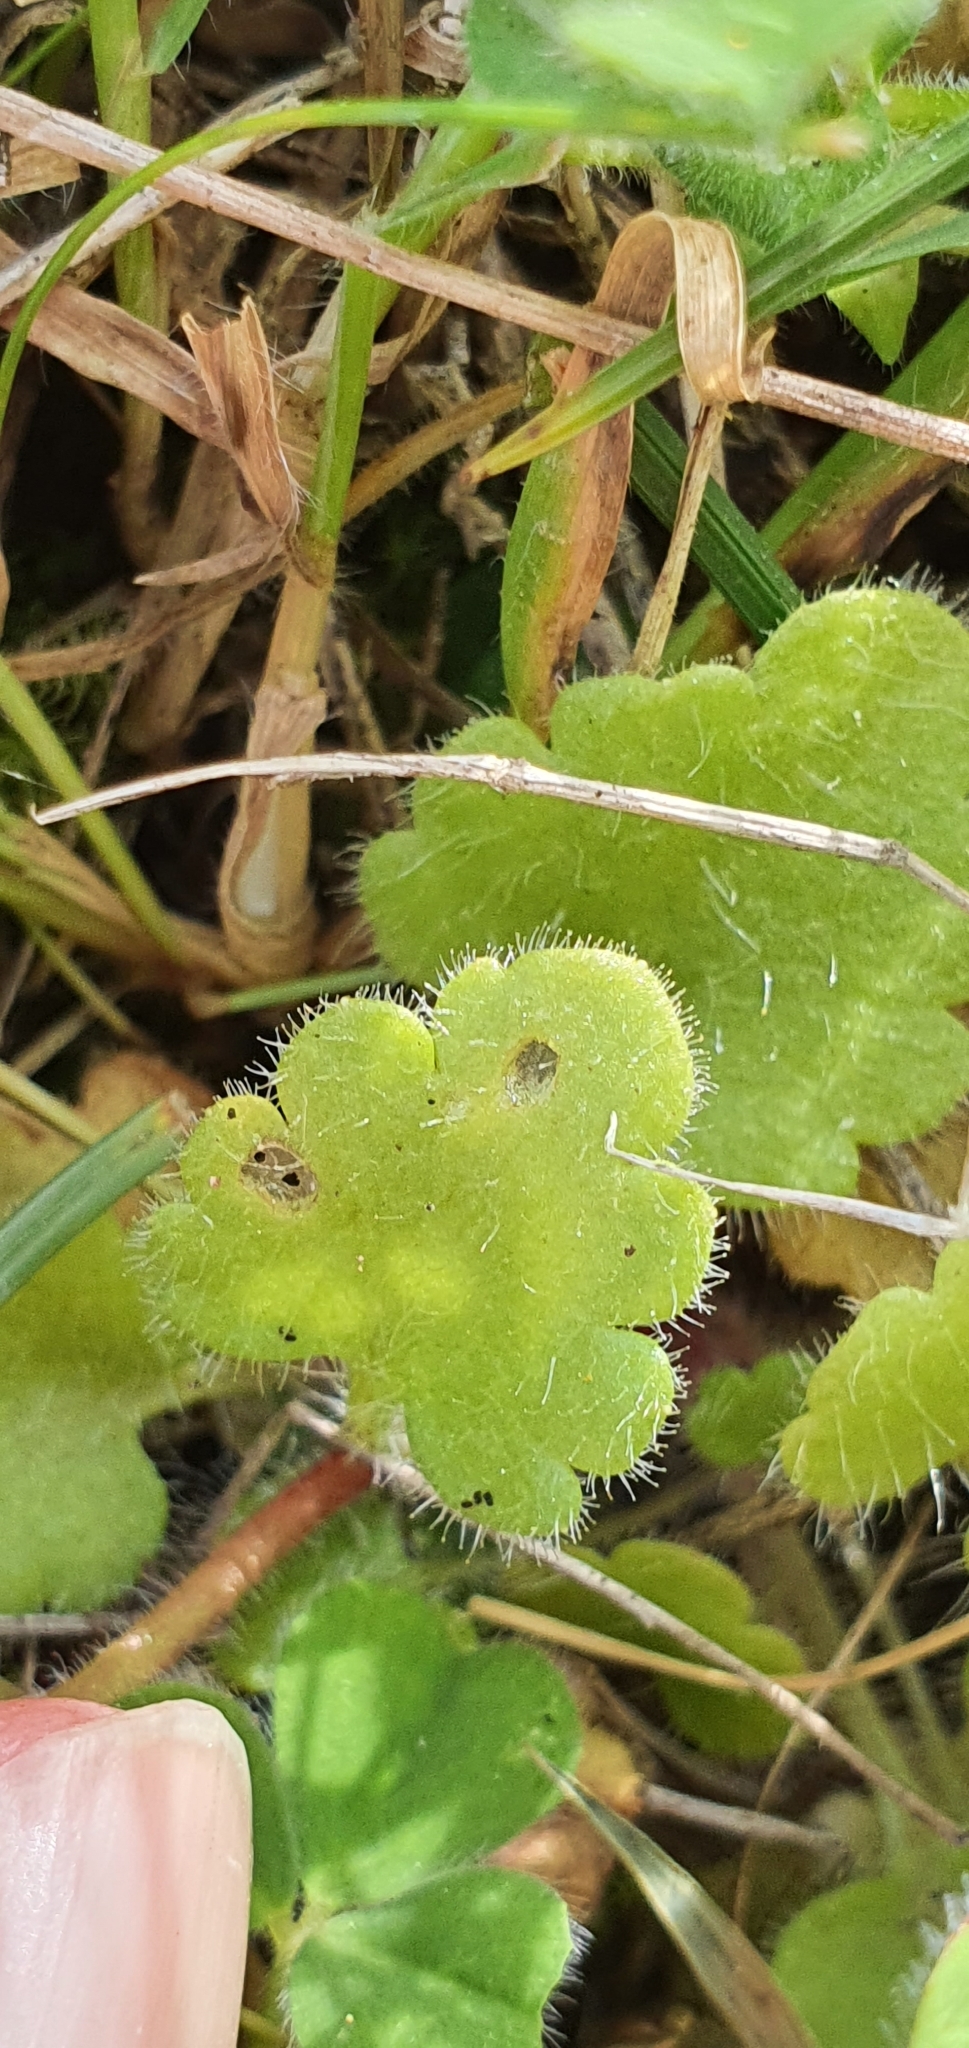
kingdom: Plantae
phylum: Tracheophyta
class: Magnoliopsida
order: Saxifragales
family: Saxifragaceae
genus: Saxifraga
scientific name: Saxifraga carpetana
